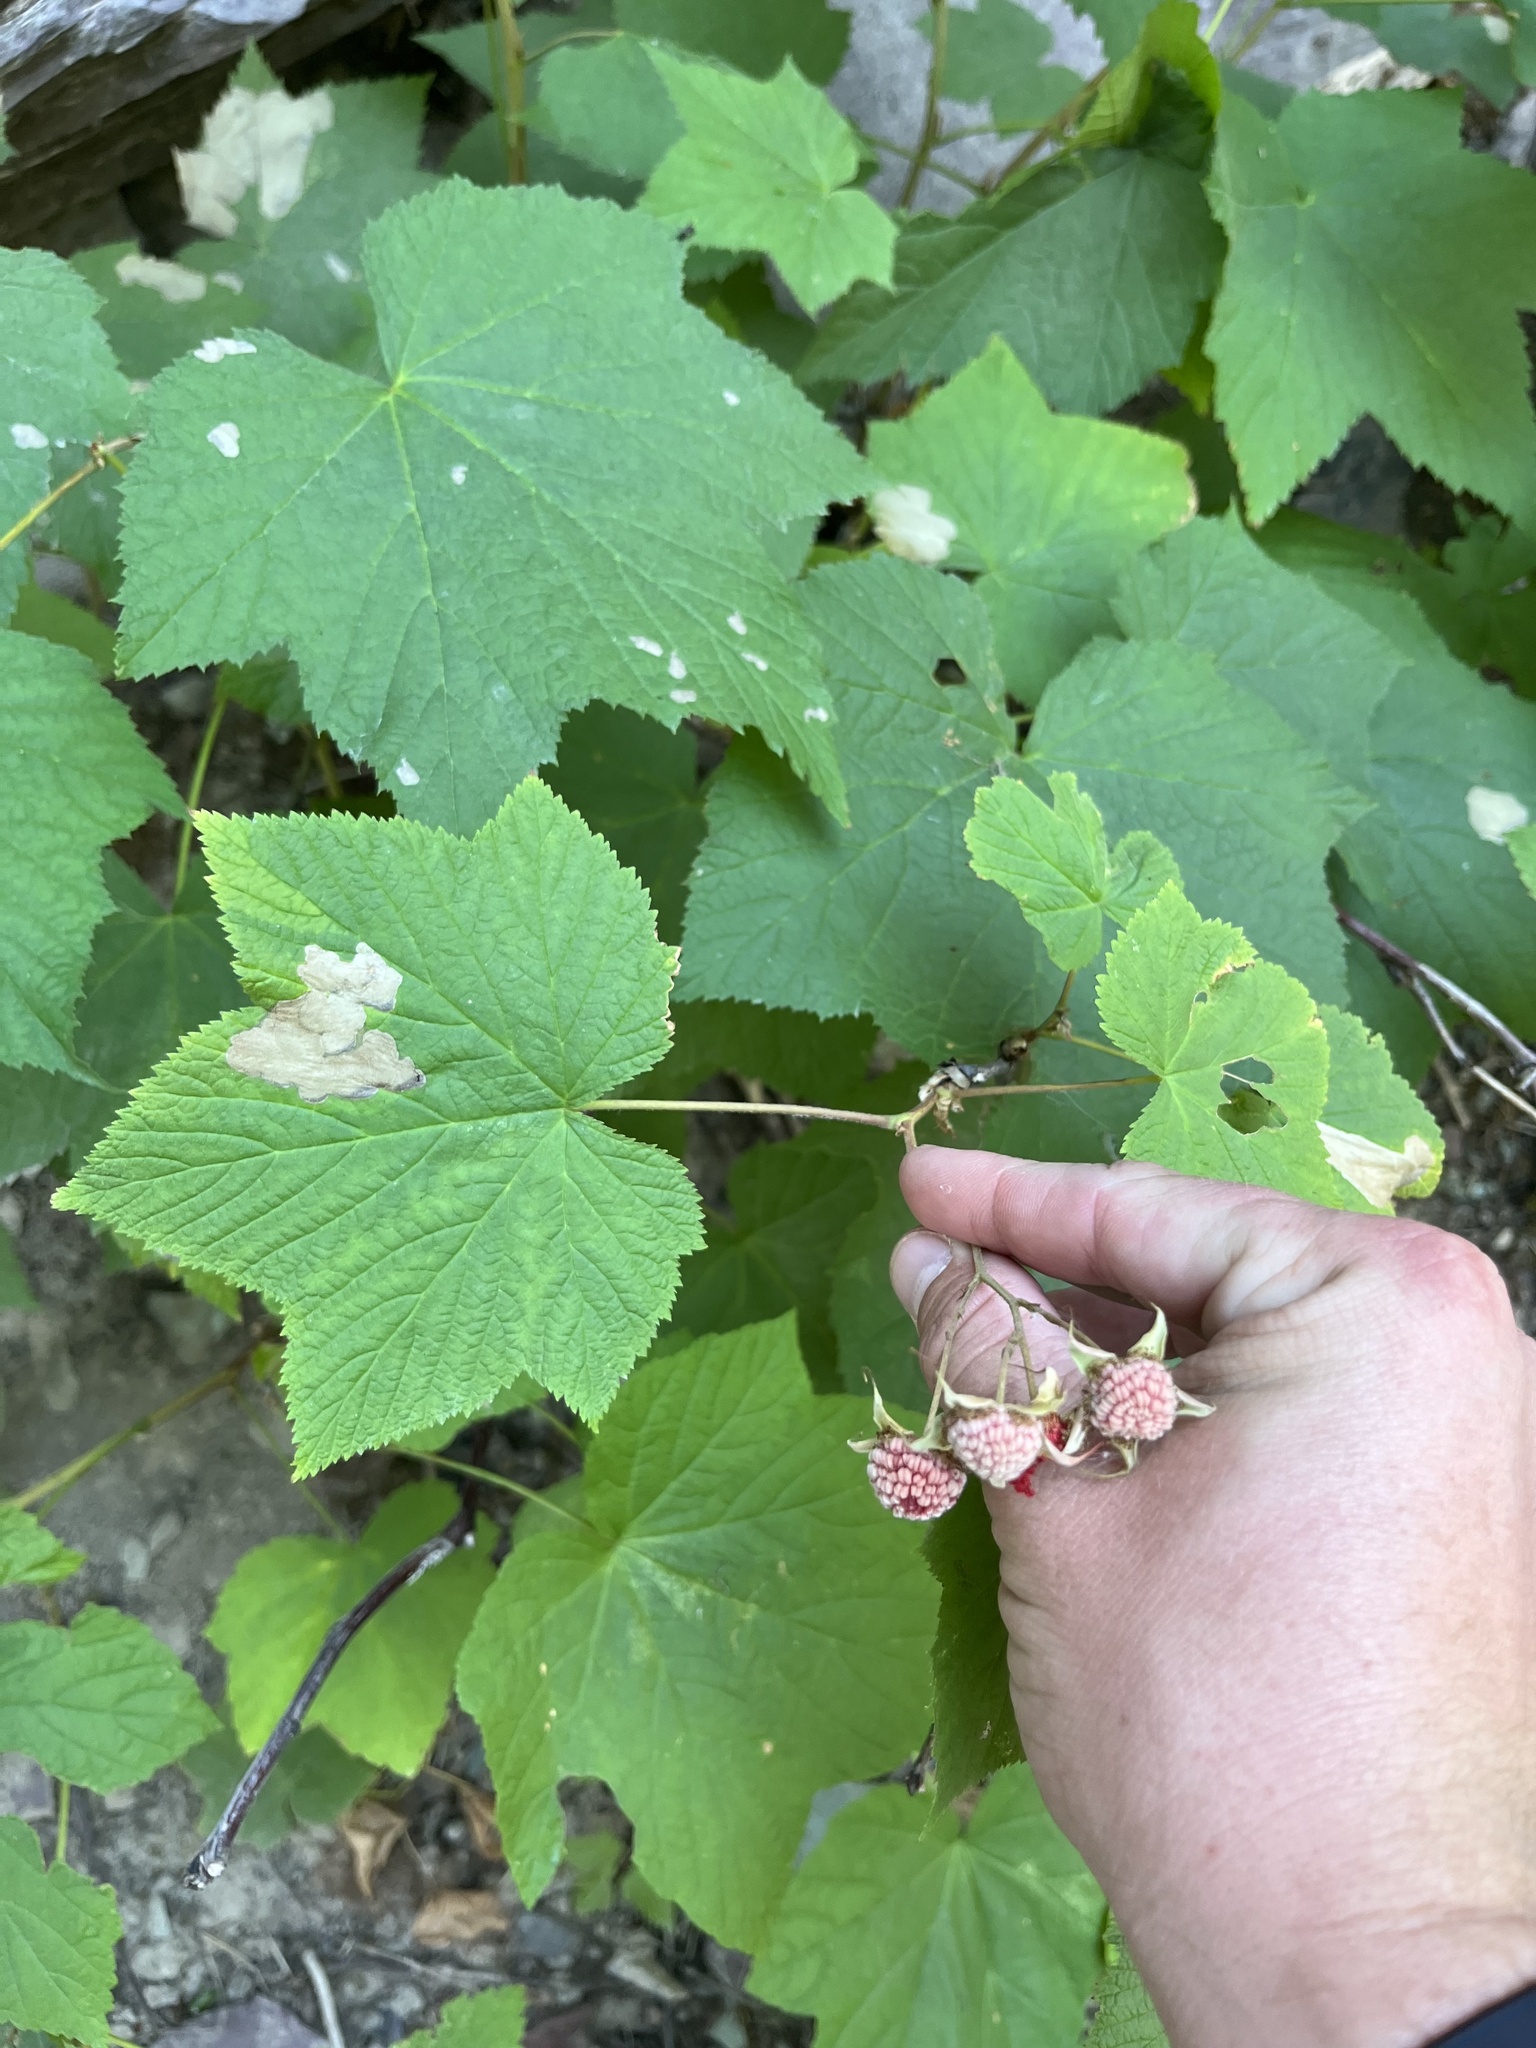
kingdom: Plantae
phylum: Tracheophyta
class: Magnoliopsida
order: Rosales
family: Rosaceae
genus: Rubus
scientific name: Rubus parviflorus
